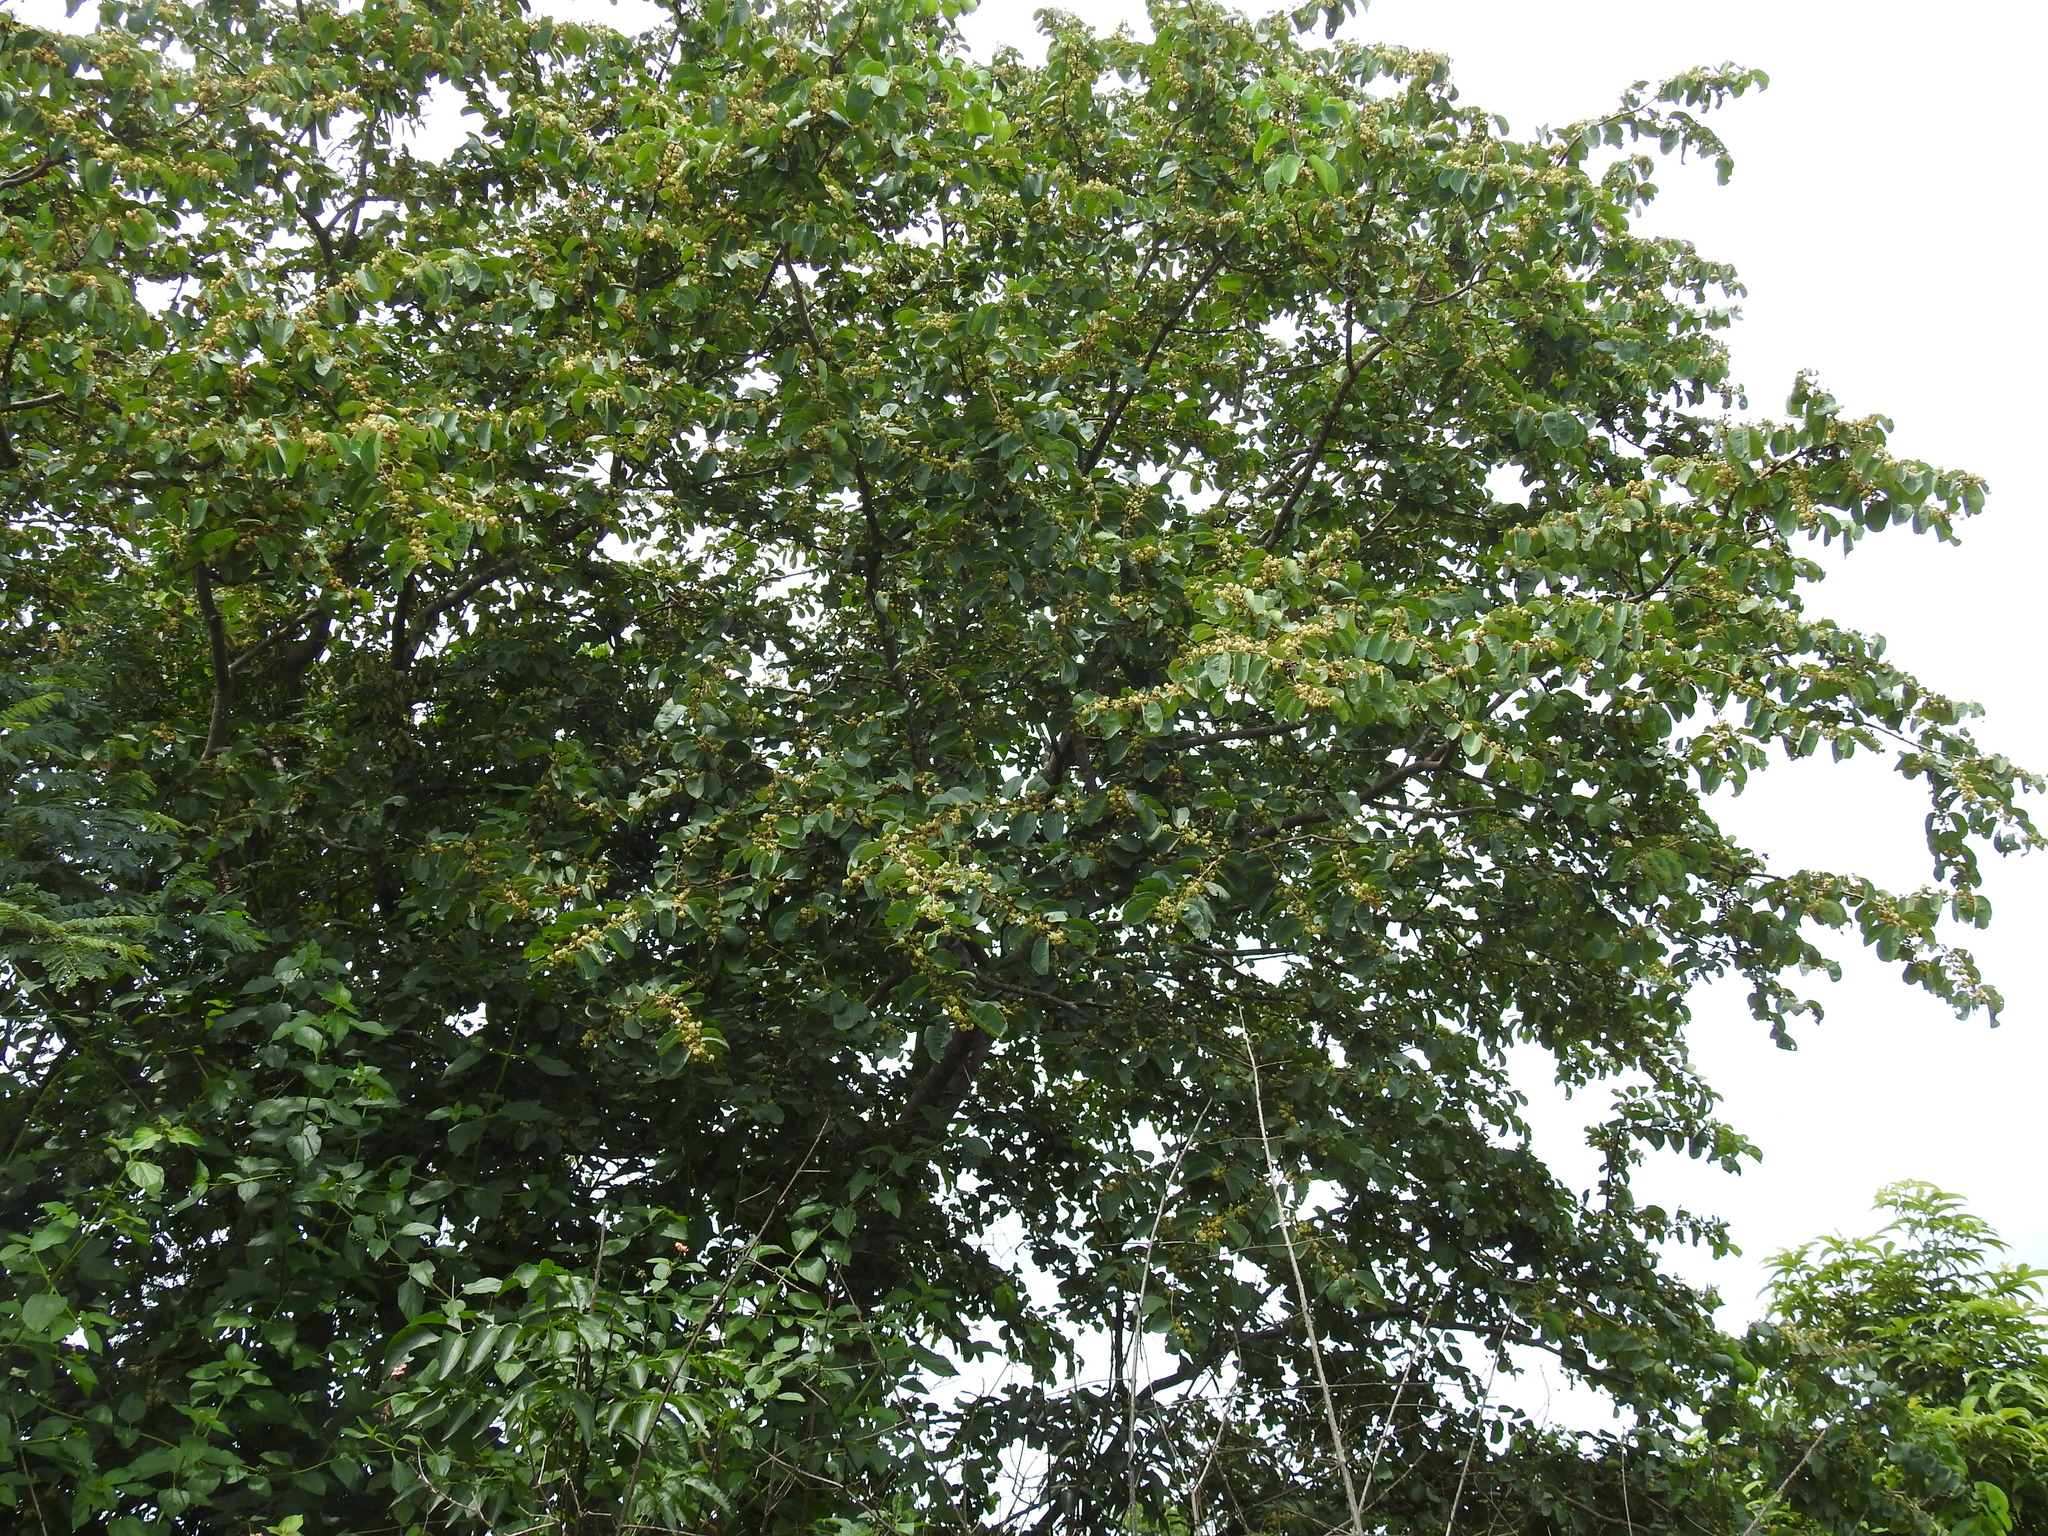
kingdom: Plantae
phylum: Tracheophyta
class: Magnoliopsida
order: Myrtales
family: Combretaceae
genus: Terminalia
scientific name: Terminalia latifolia
